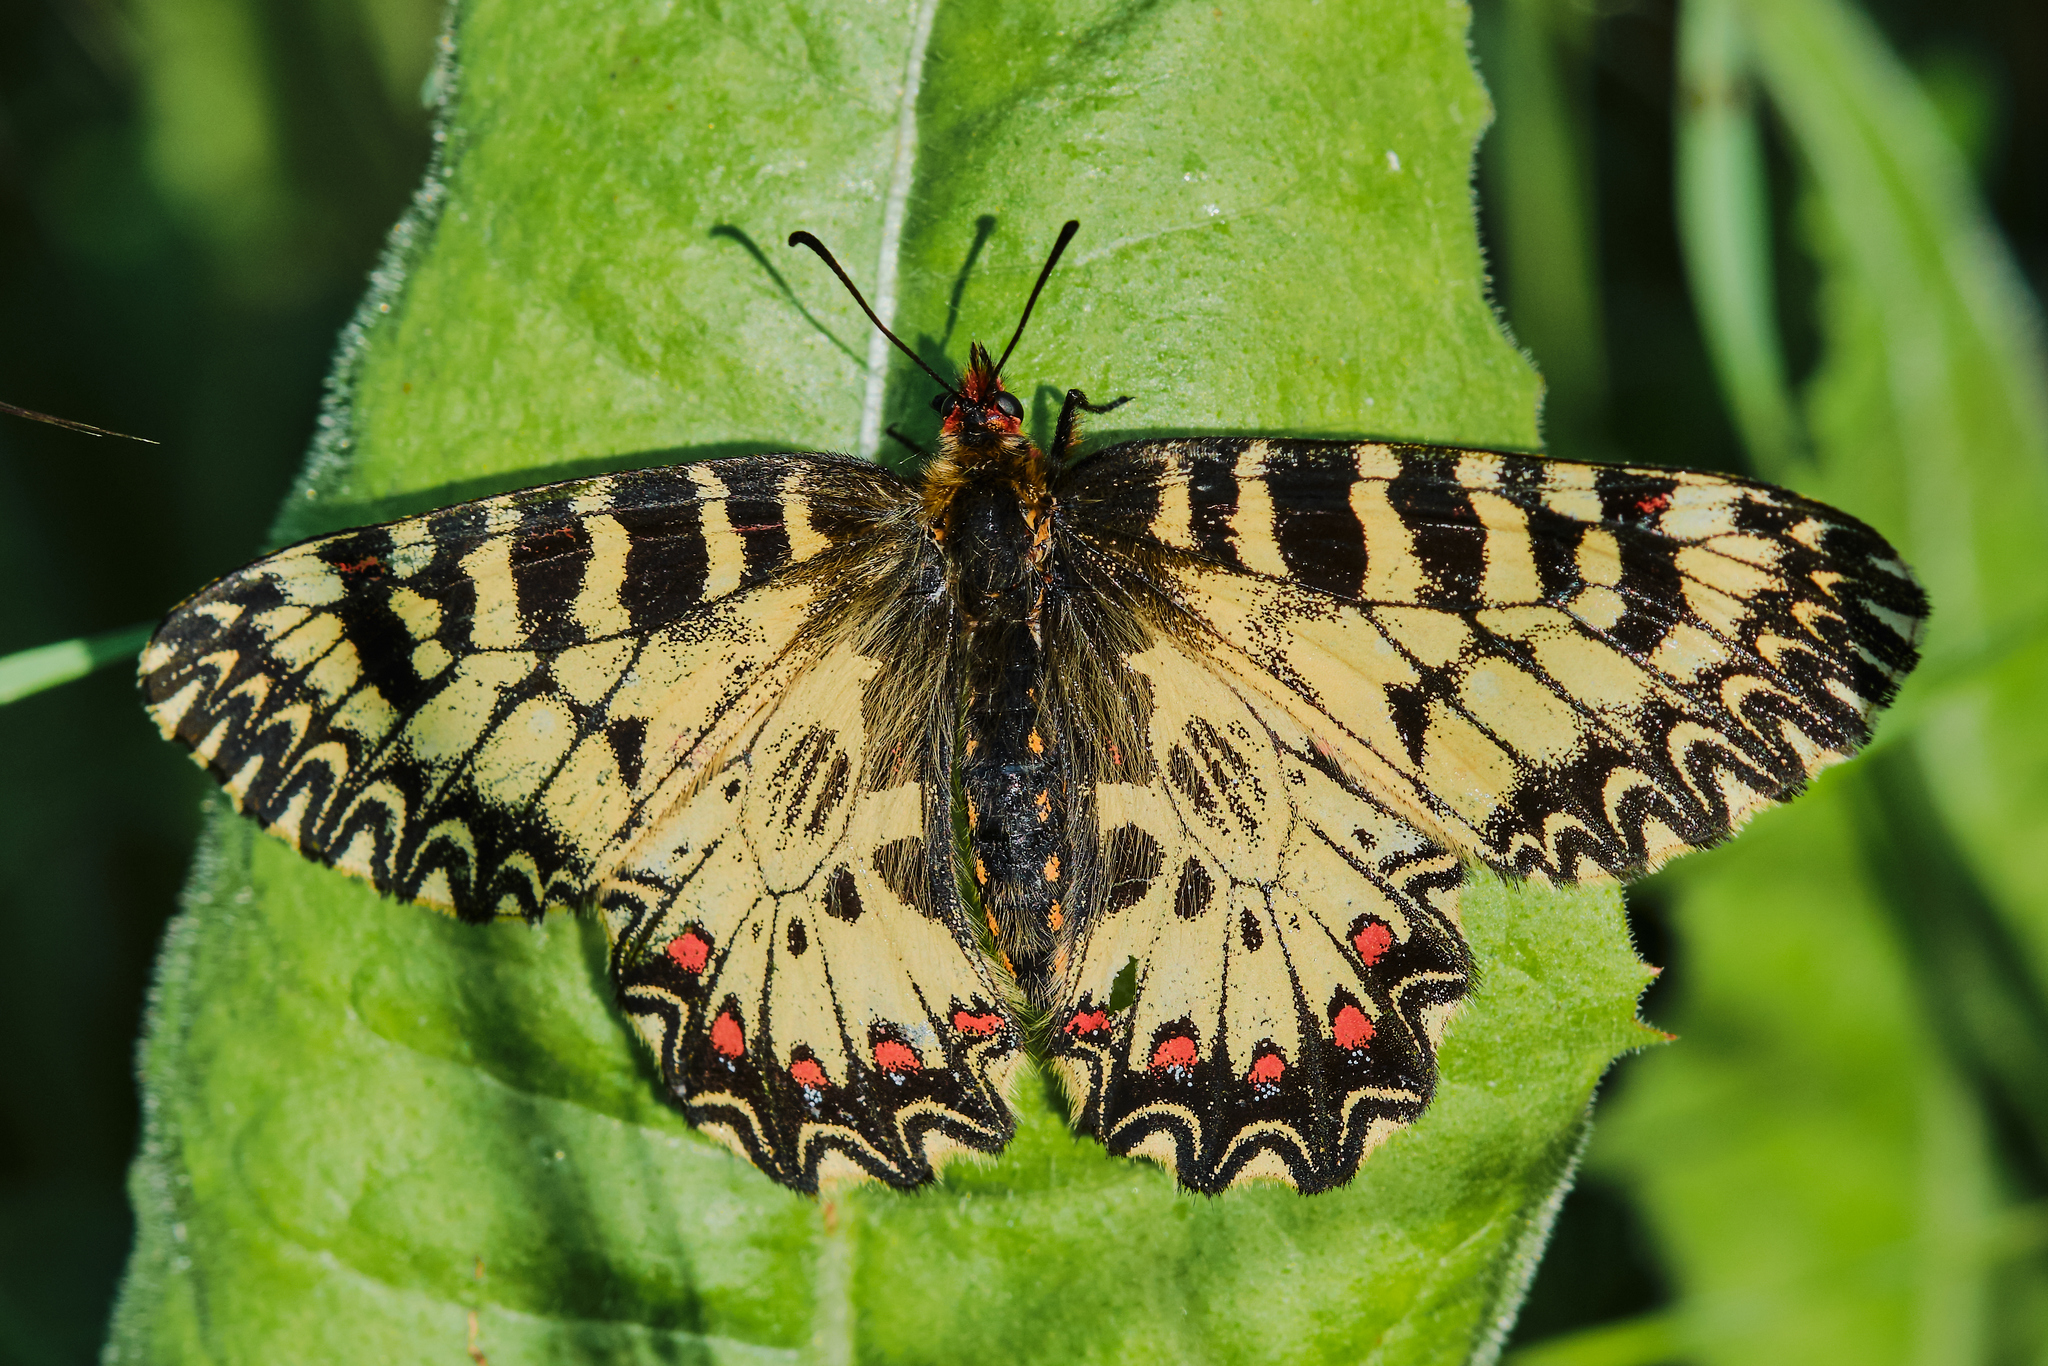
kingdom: Animalia
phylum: Arthropoda
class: Insecta
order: Lepidoptera
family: Papilionidae
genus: Zerynthia
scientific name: Zerynthia polyxena
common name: Southern festoon
